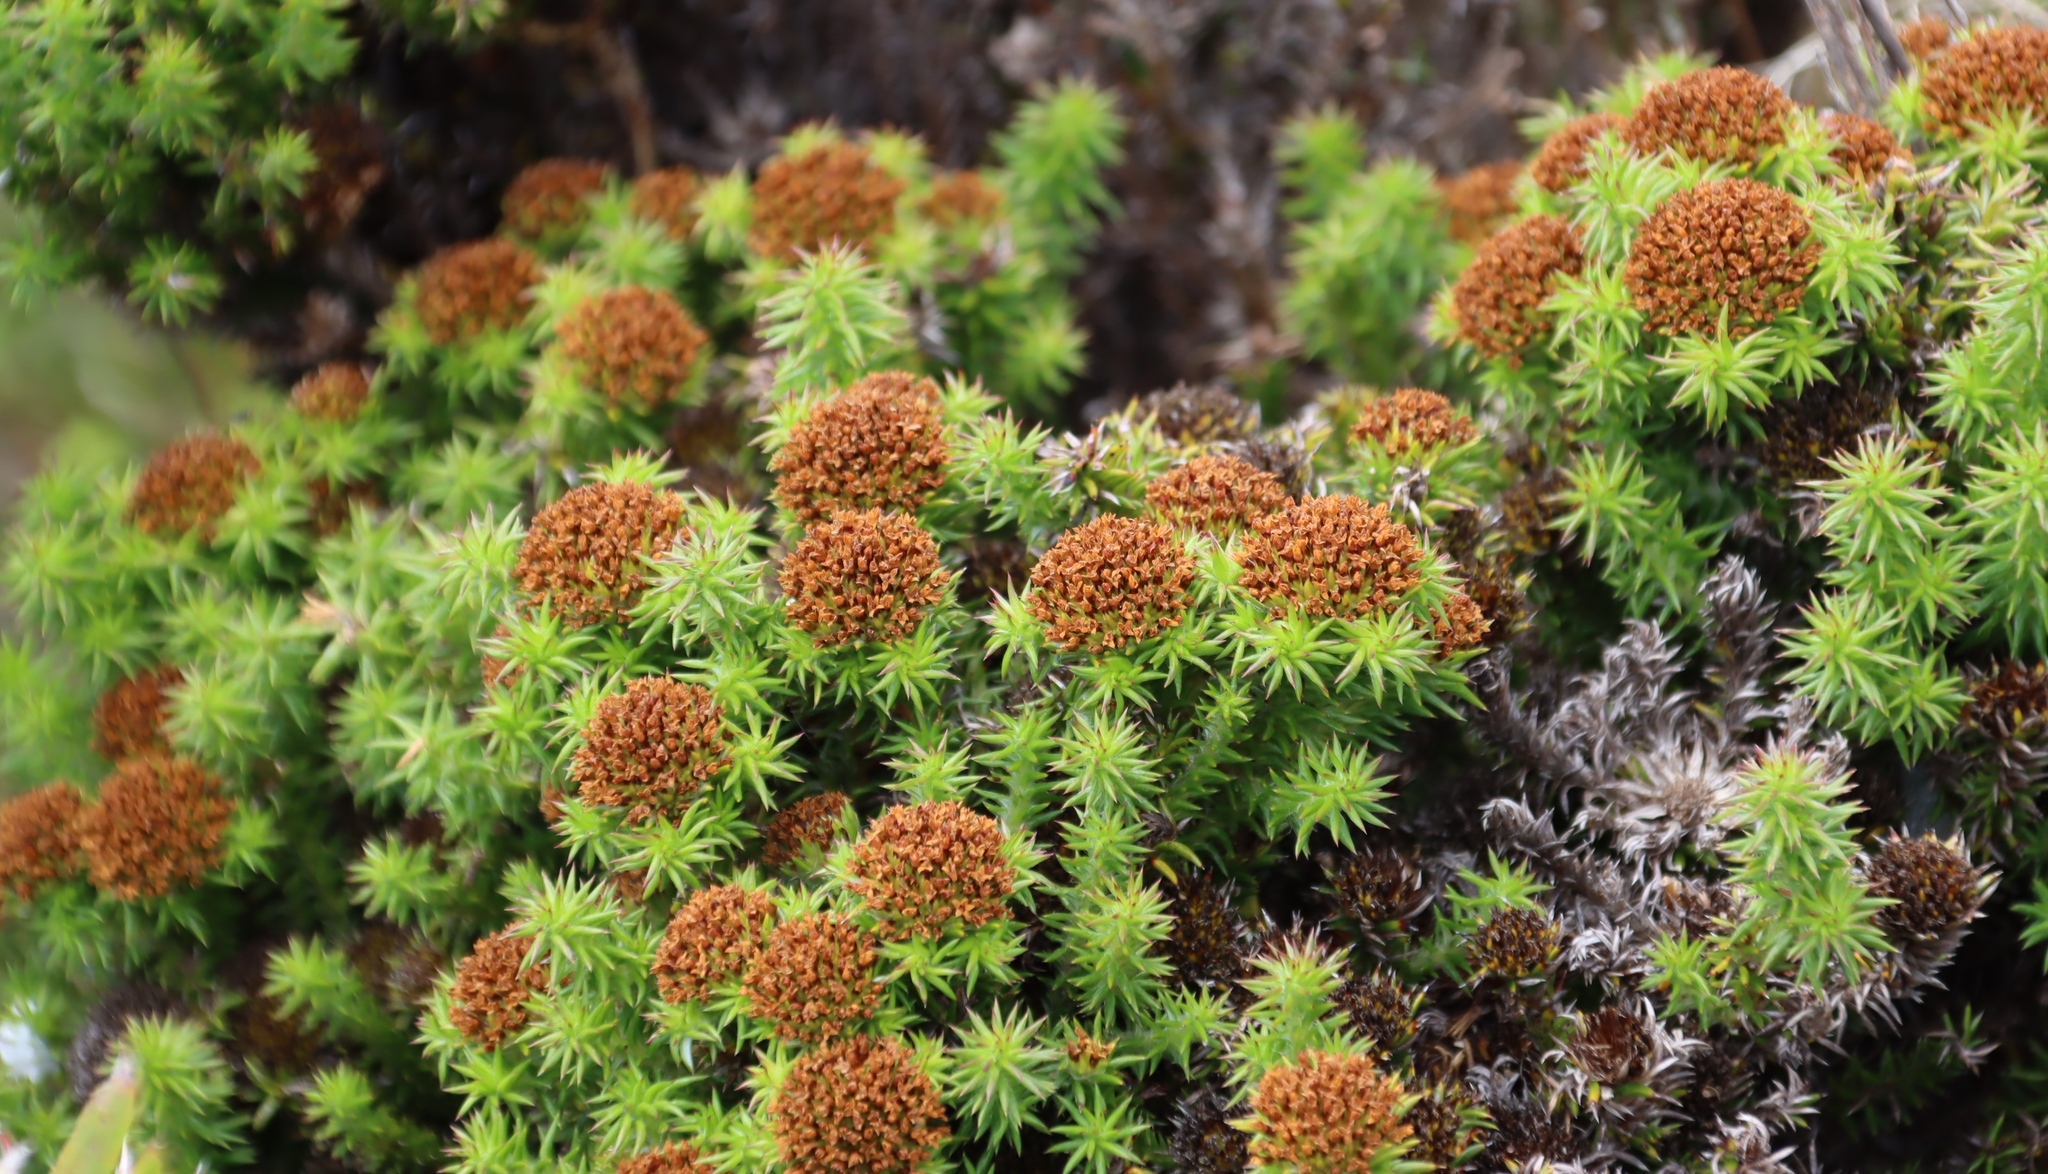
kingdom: Plantae
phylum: Tracheophyta
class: Magnoliopsida
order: Asterales
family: Asteraceae
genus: Stoebe
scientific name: Stoebe aethiopica
